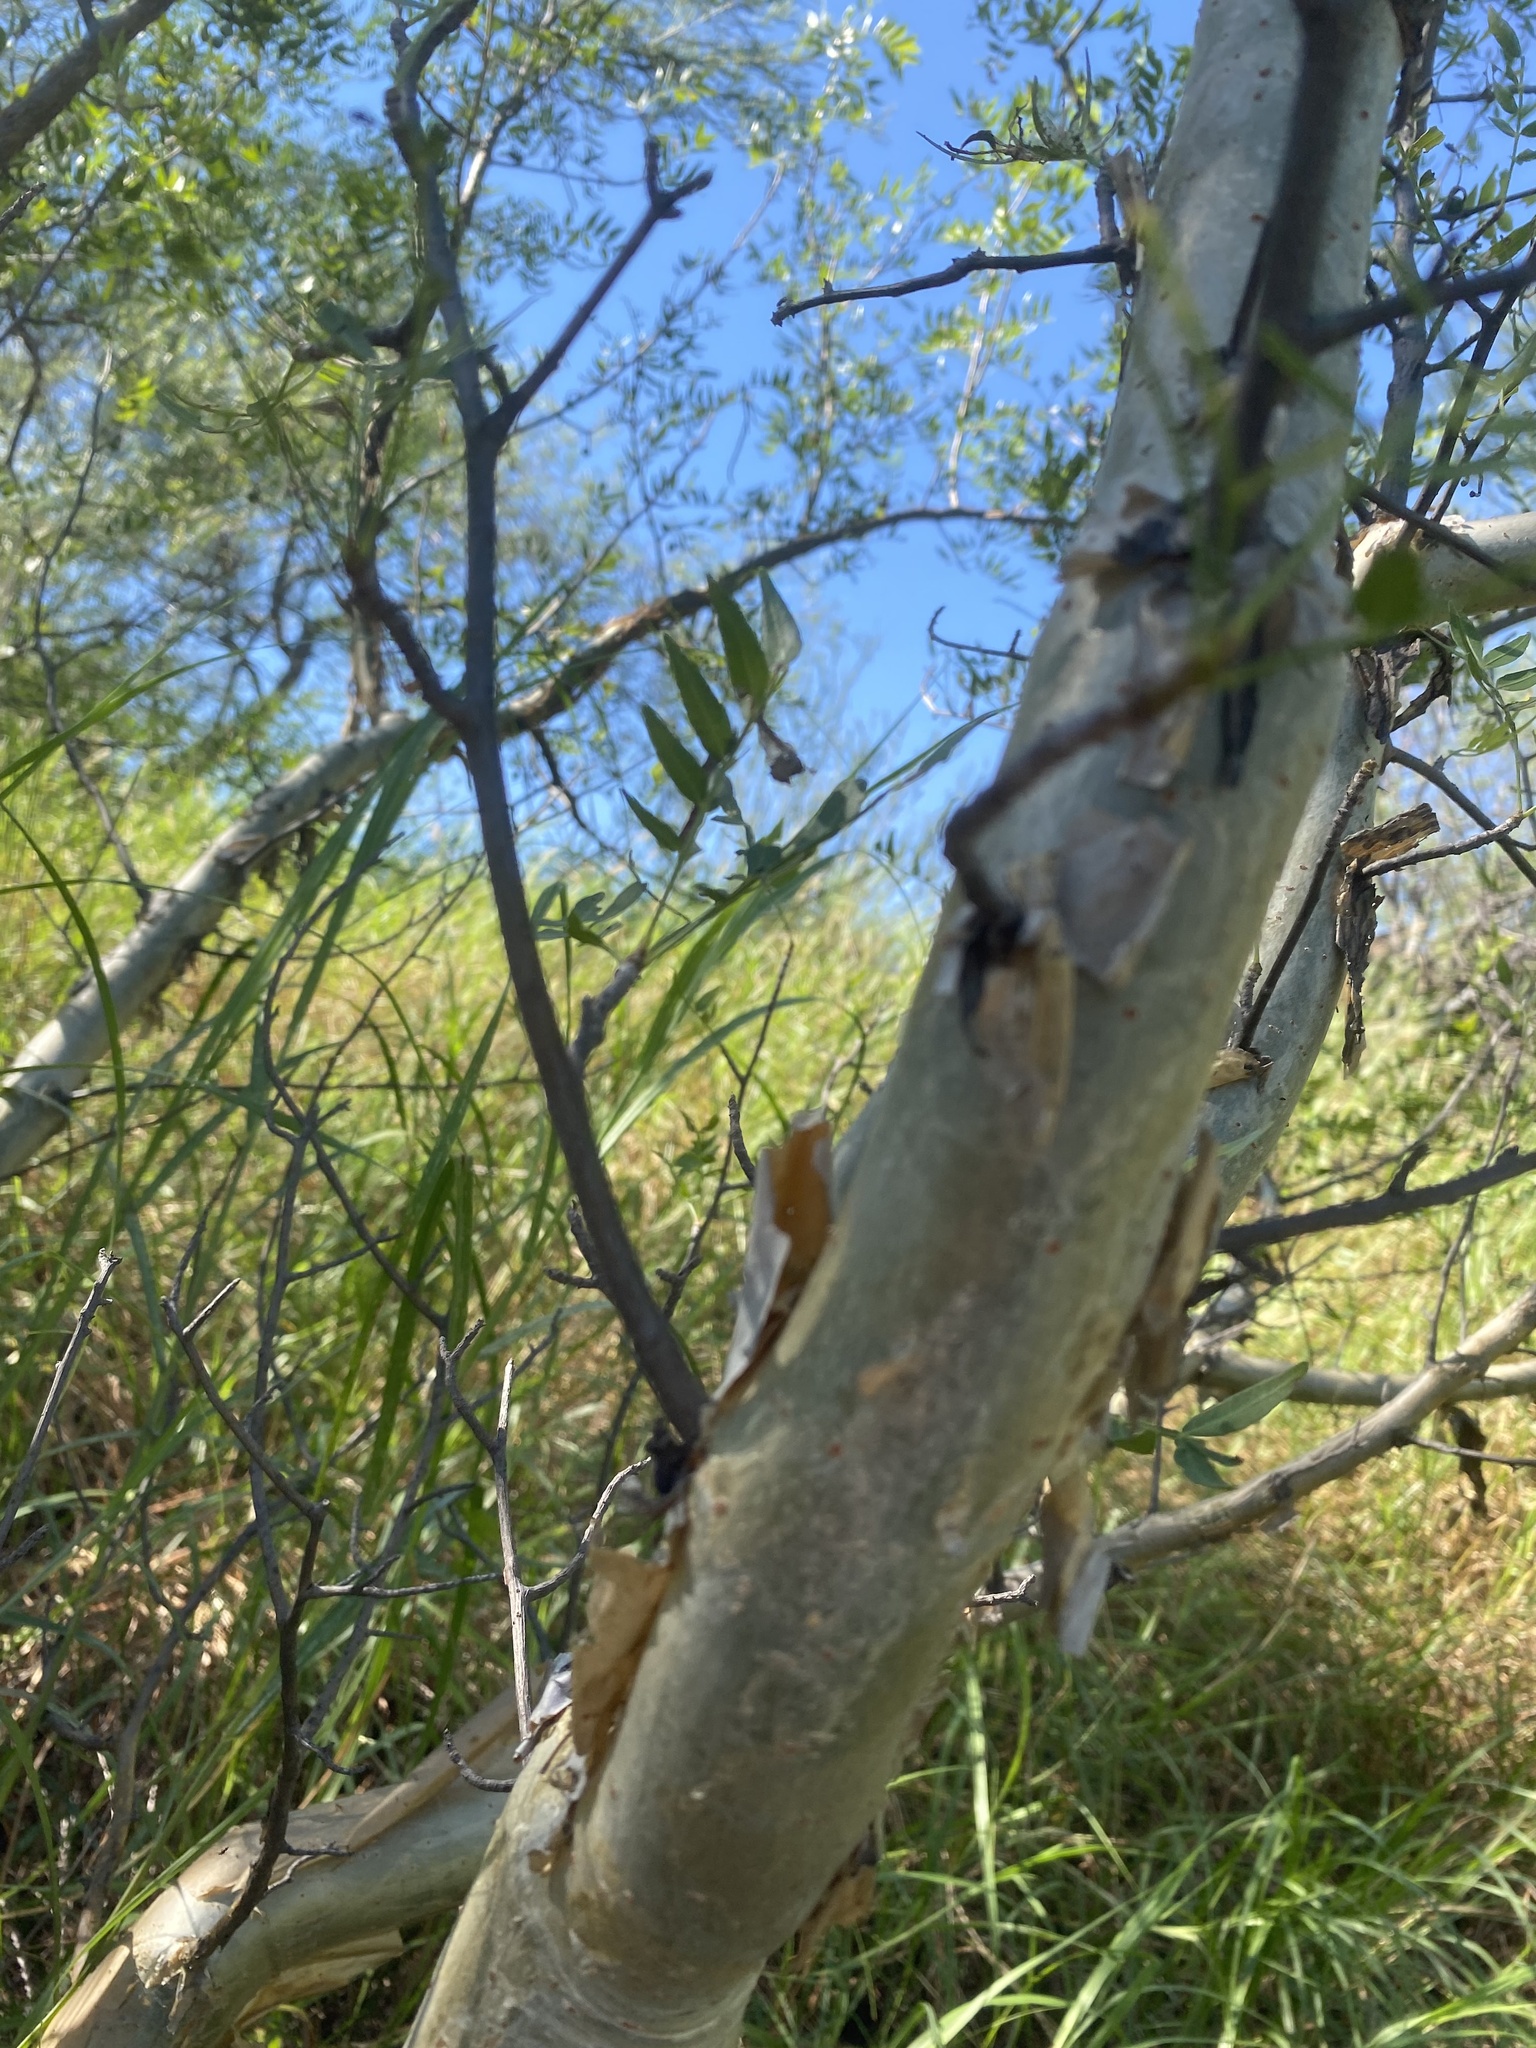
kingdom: Plantae
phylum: Tracheophyta
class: Magnoliopsida
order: Sapindales
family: Burseraceae
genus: Bursera
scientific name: Bursera fagaroides
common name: Elephant tree
